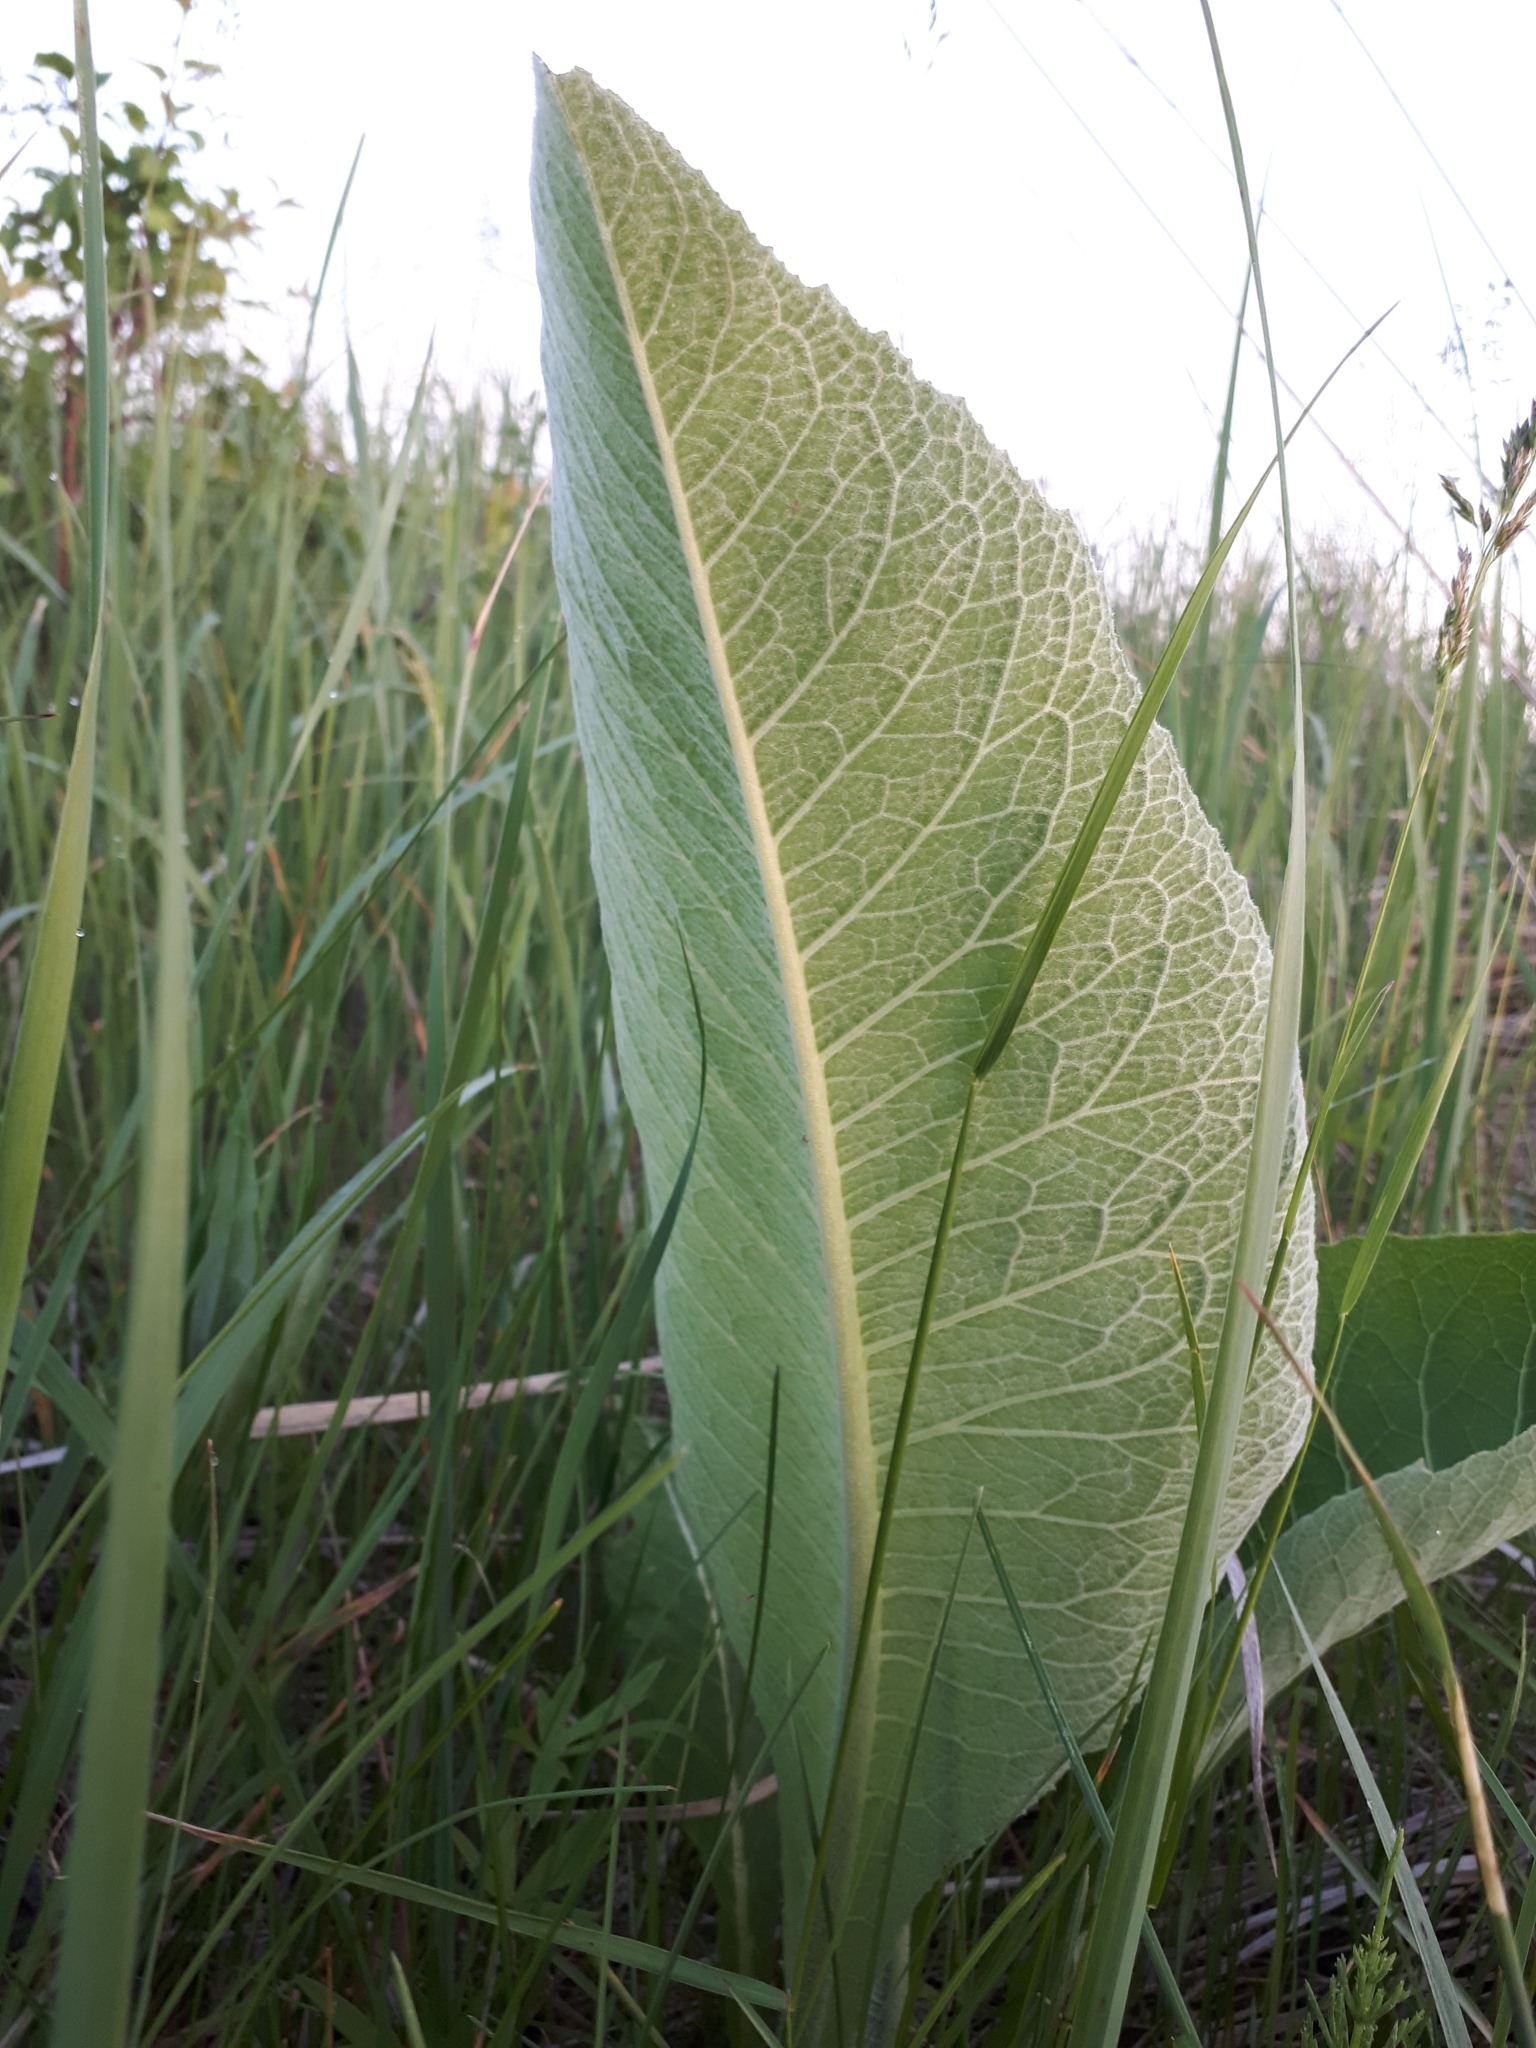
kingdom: Plantae
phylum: Tracheophyta
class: Magnoliopsida
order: Asterales
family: Asteraceae
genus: Inula
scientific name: Inula helenium
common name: Elecampane
